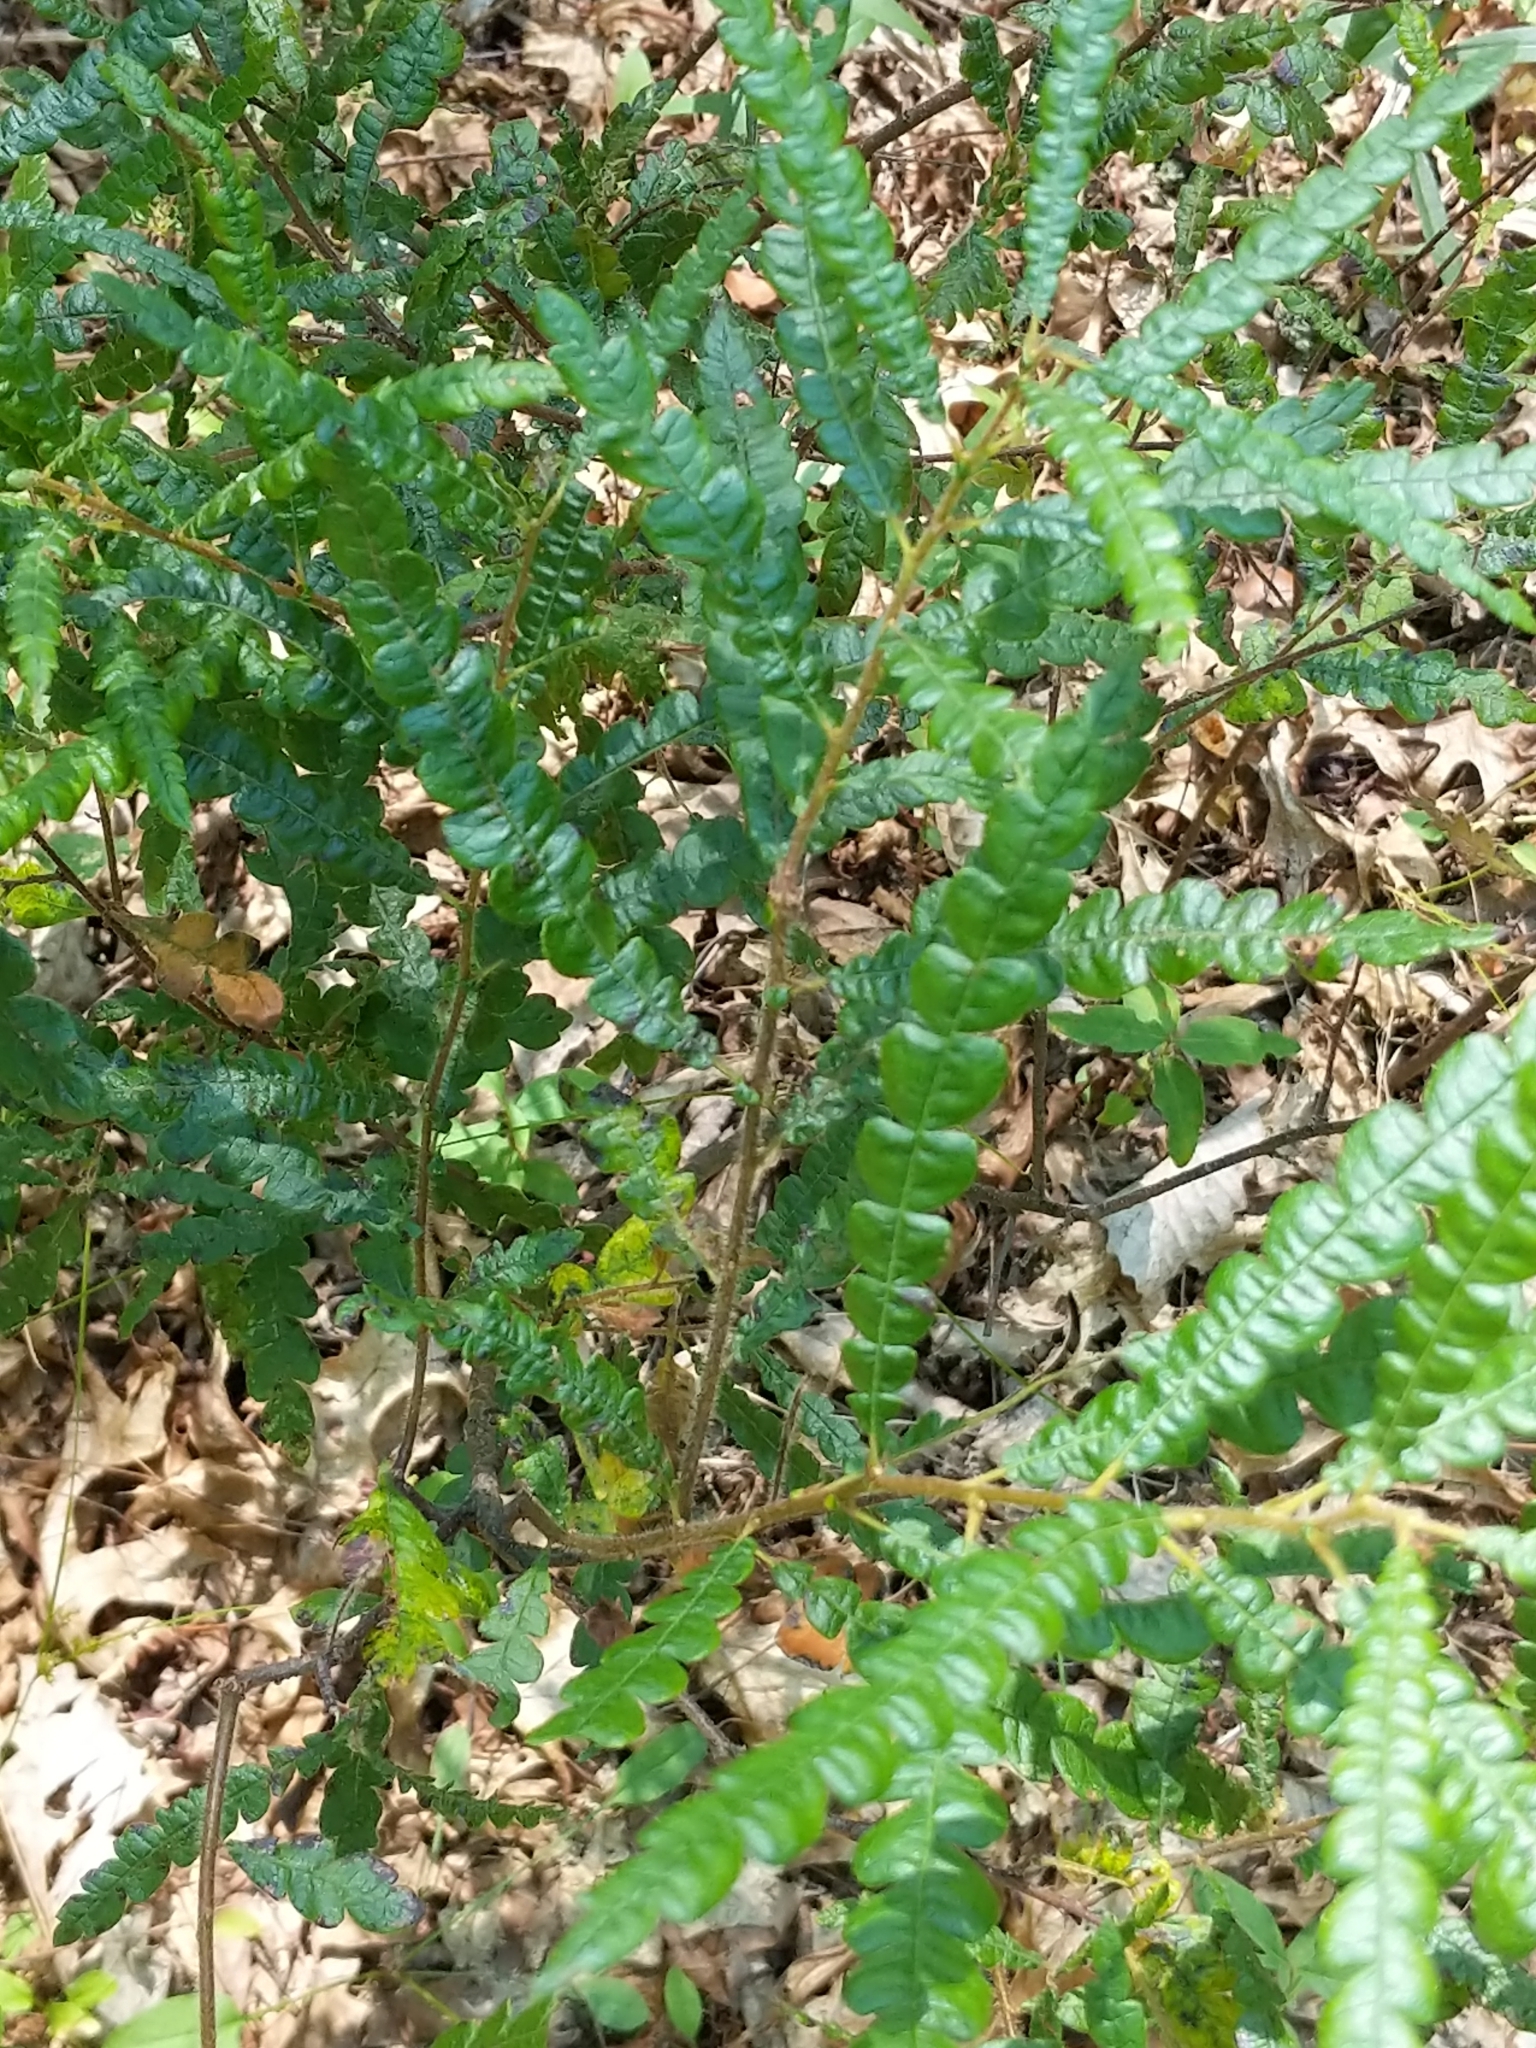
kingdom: Plantae
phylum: Tracheophyta
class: Magnoliopsida
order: Fagales
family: Myricaceae
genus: Comptonia
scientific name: Comptonia peregrina
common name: Sweet-fern
